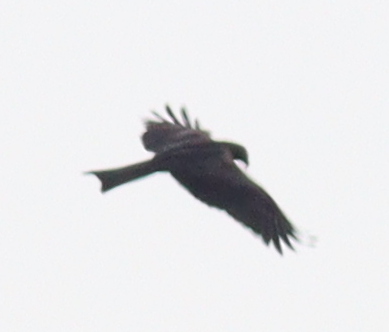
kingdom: Animalia
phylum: Chordata
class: Aves
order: Accipitriformes
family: Accipitridae
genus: Milvus
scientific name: Milvus migrans
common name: Black kite
